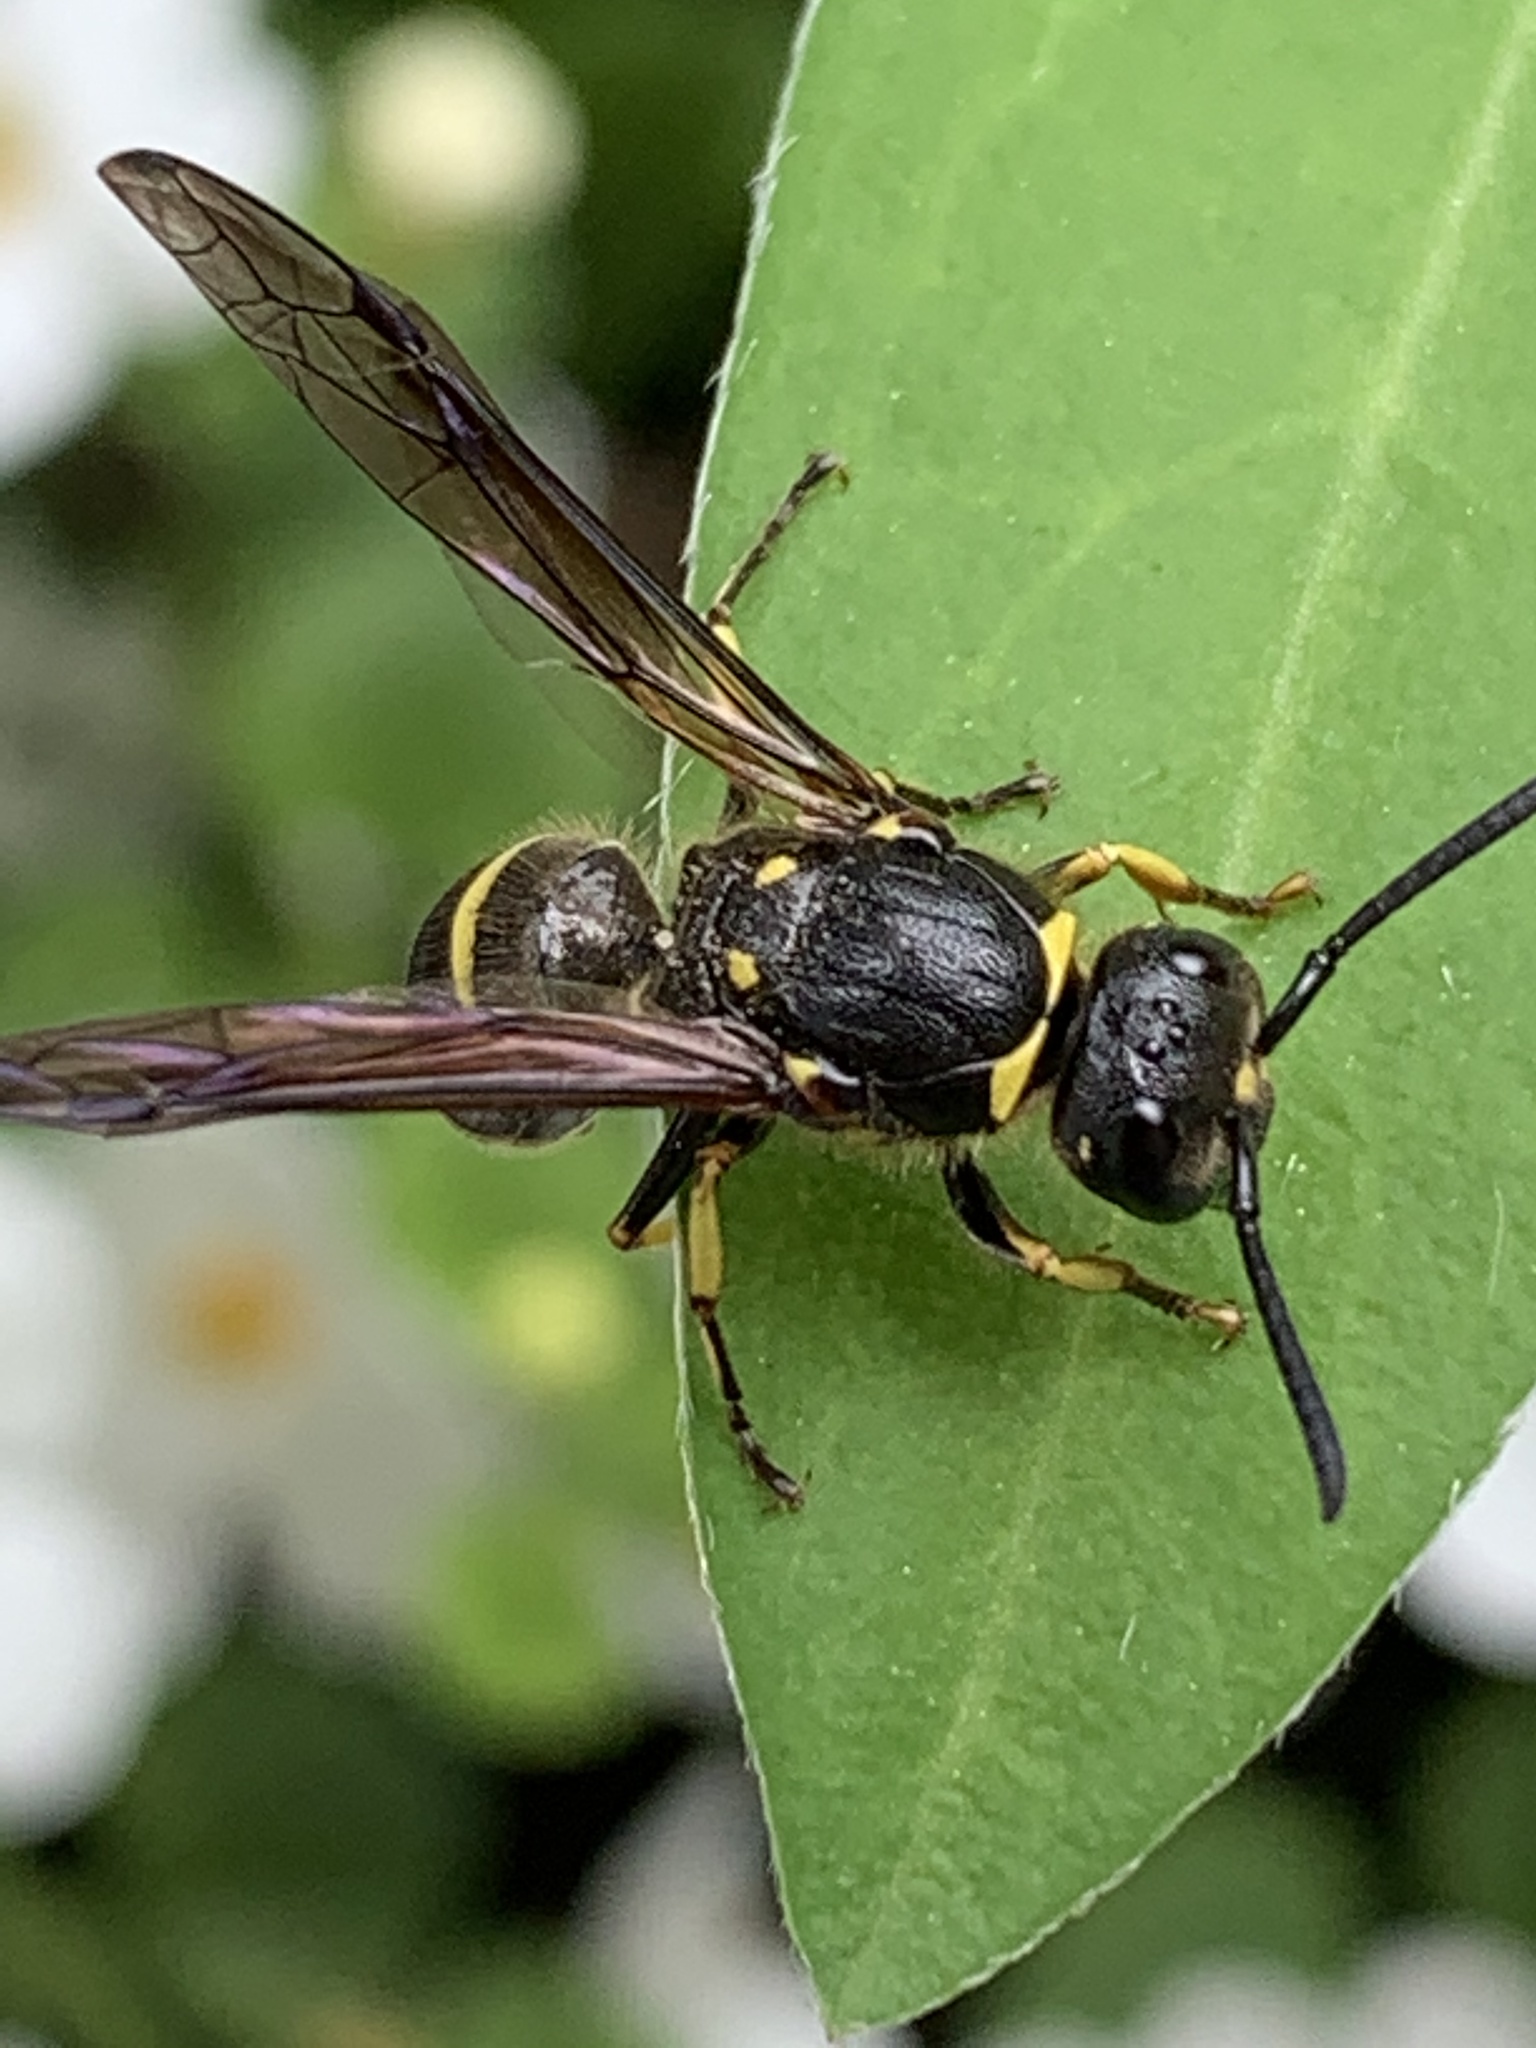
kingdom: Animalia
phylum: Arthropoda
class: Insecta
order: Hymenoptera
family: Vespidae
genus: Ancistrocerus
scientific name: Ancistrocerus
